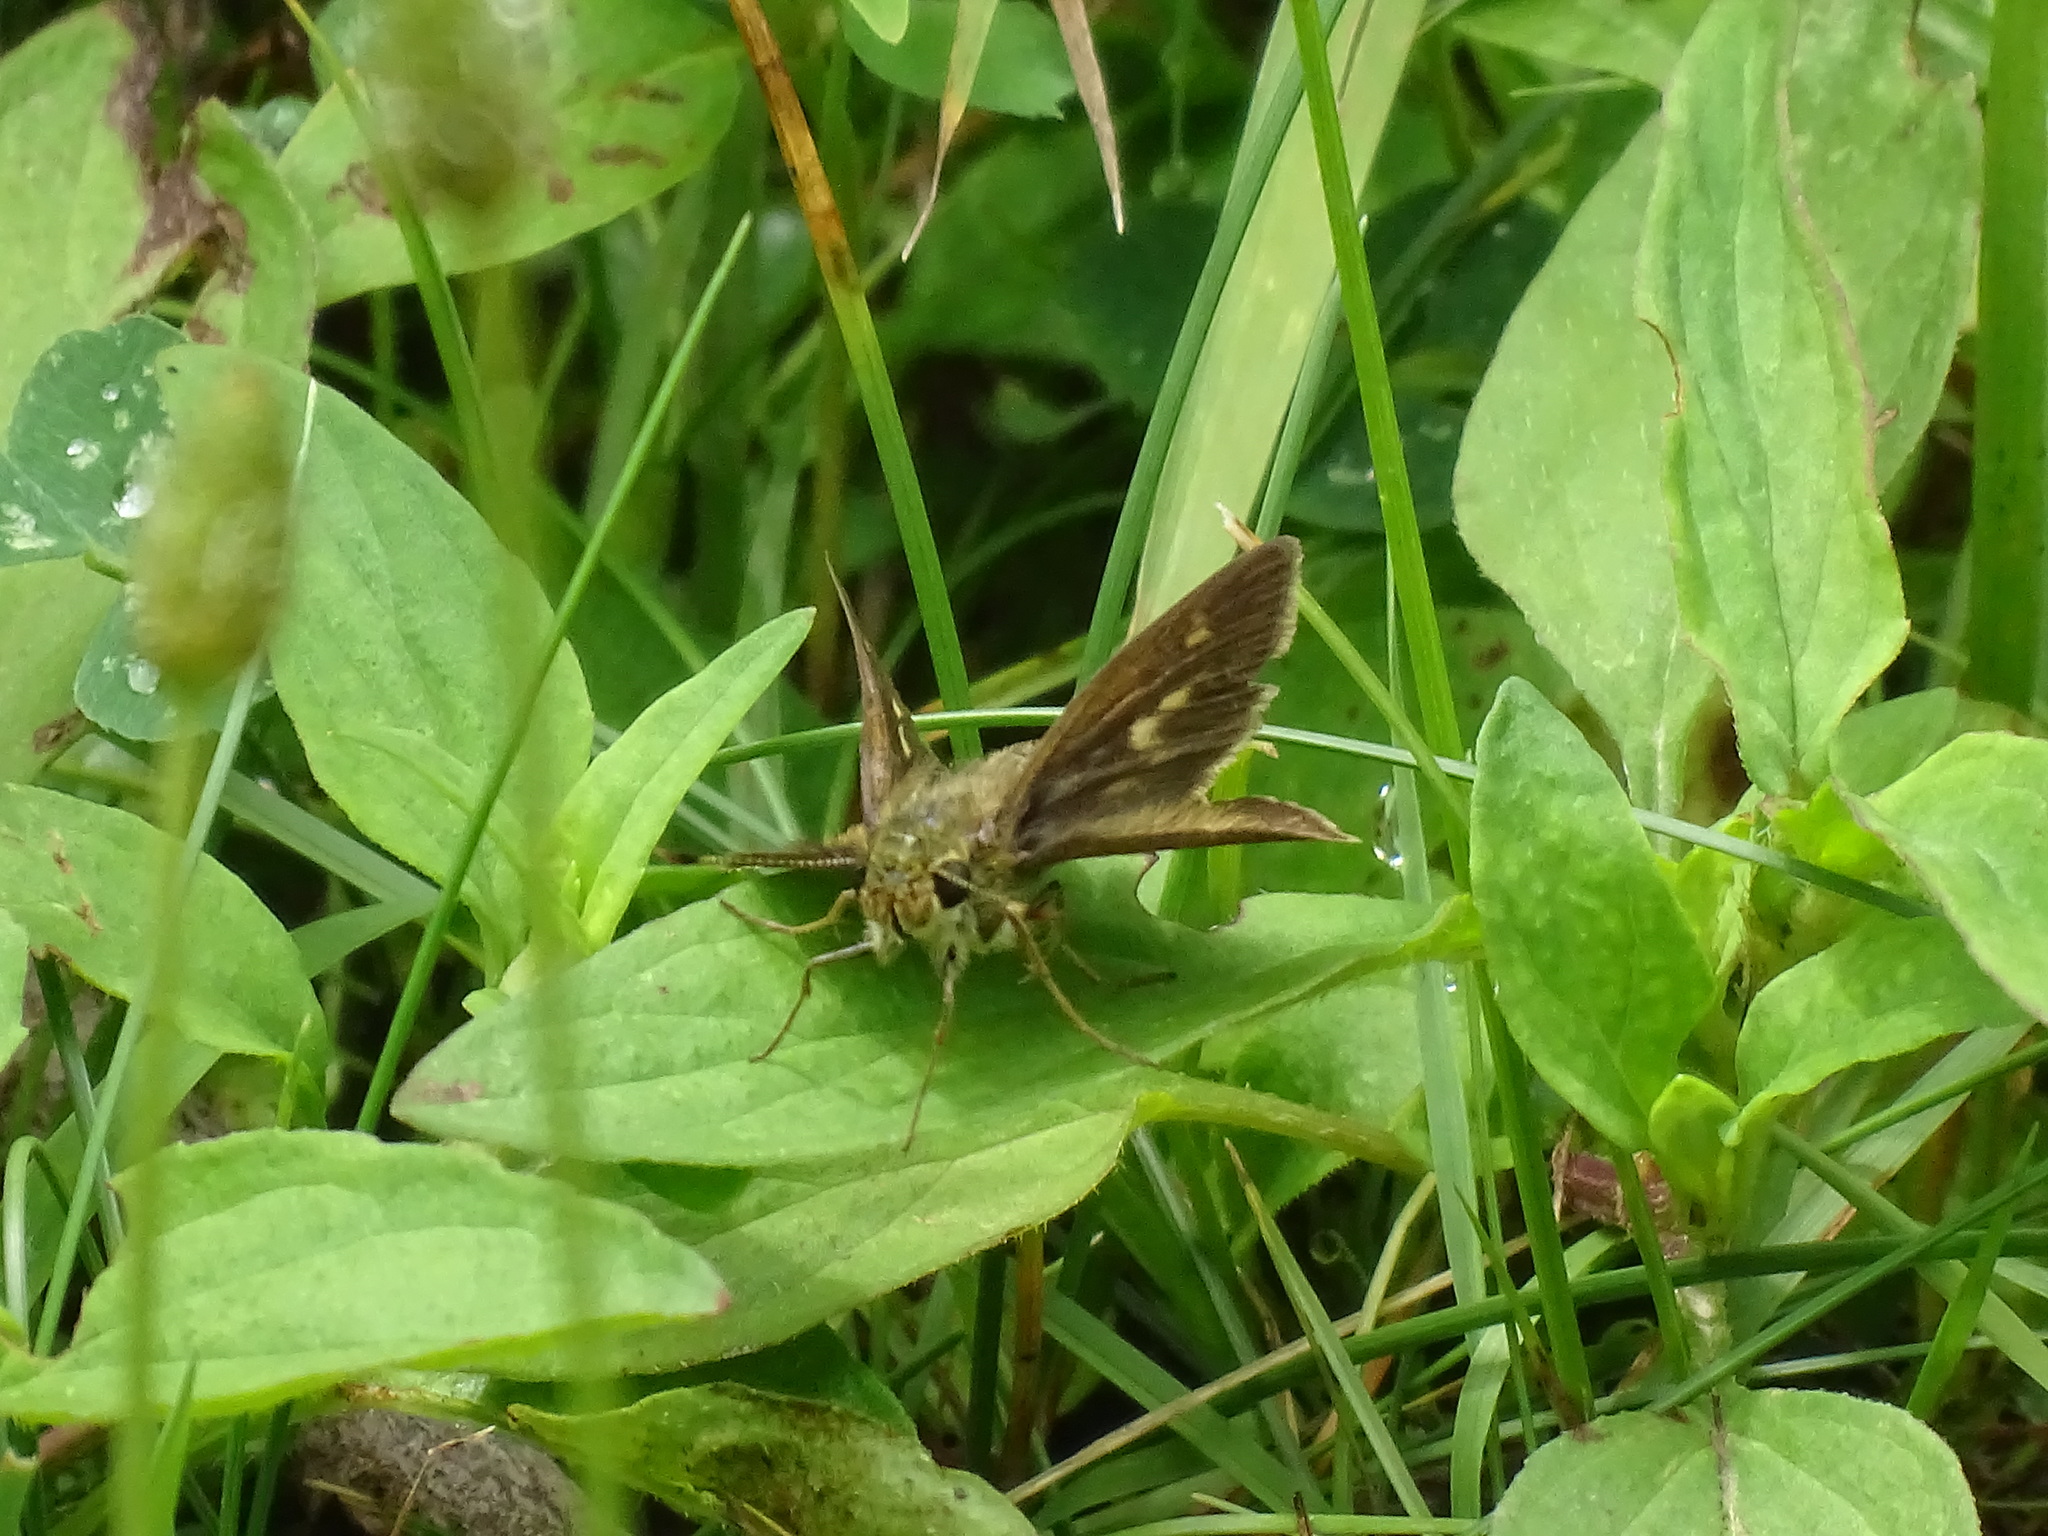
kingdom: Animalia
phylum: Arthropoda
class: Insecta
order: Lepidoptera
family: Hesperiidae
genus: Polites
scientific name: Polites egeremet
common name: Northern broken-dash
